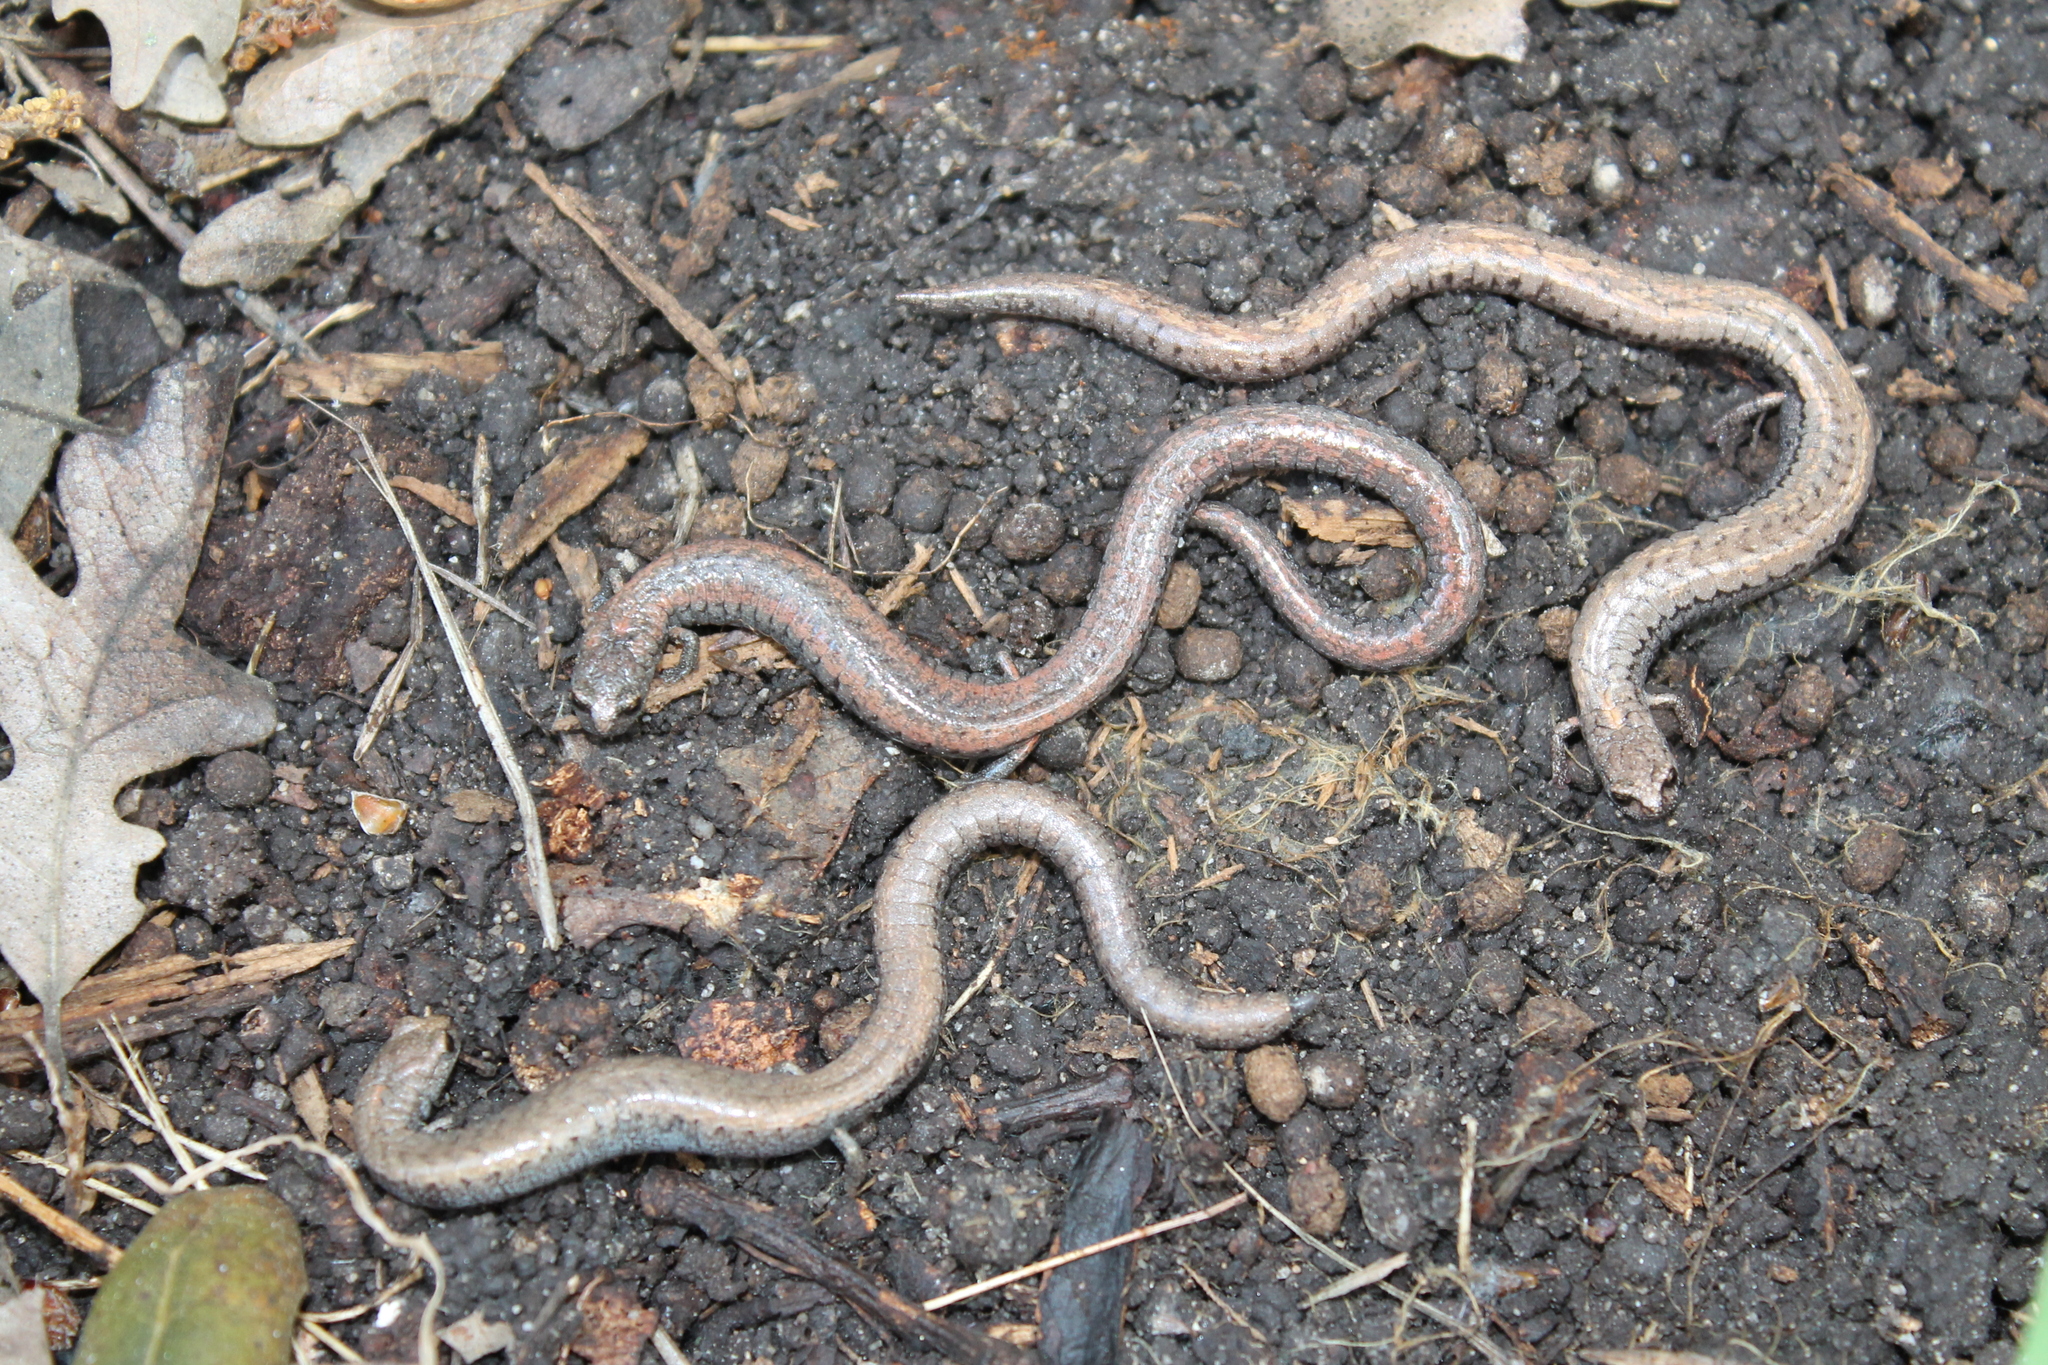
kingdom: Animalia
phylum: Chordata
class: Amphibia
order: Caudata
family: Plethodontidae
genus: Batrachoseps
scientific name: Batrachoseps gavilanensis
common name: Gabilan mountains slender salamander
